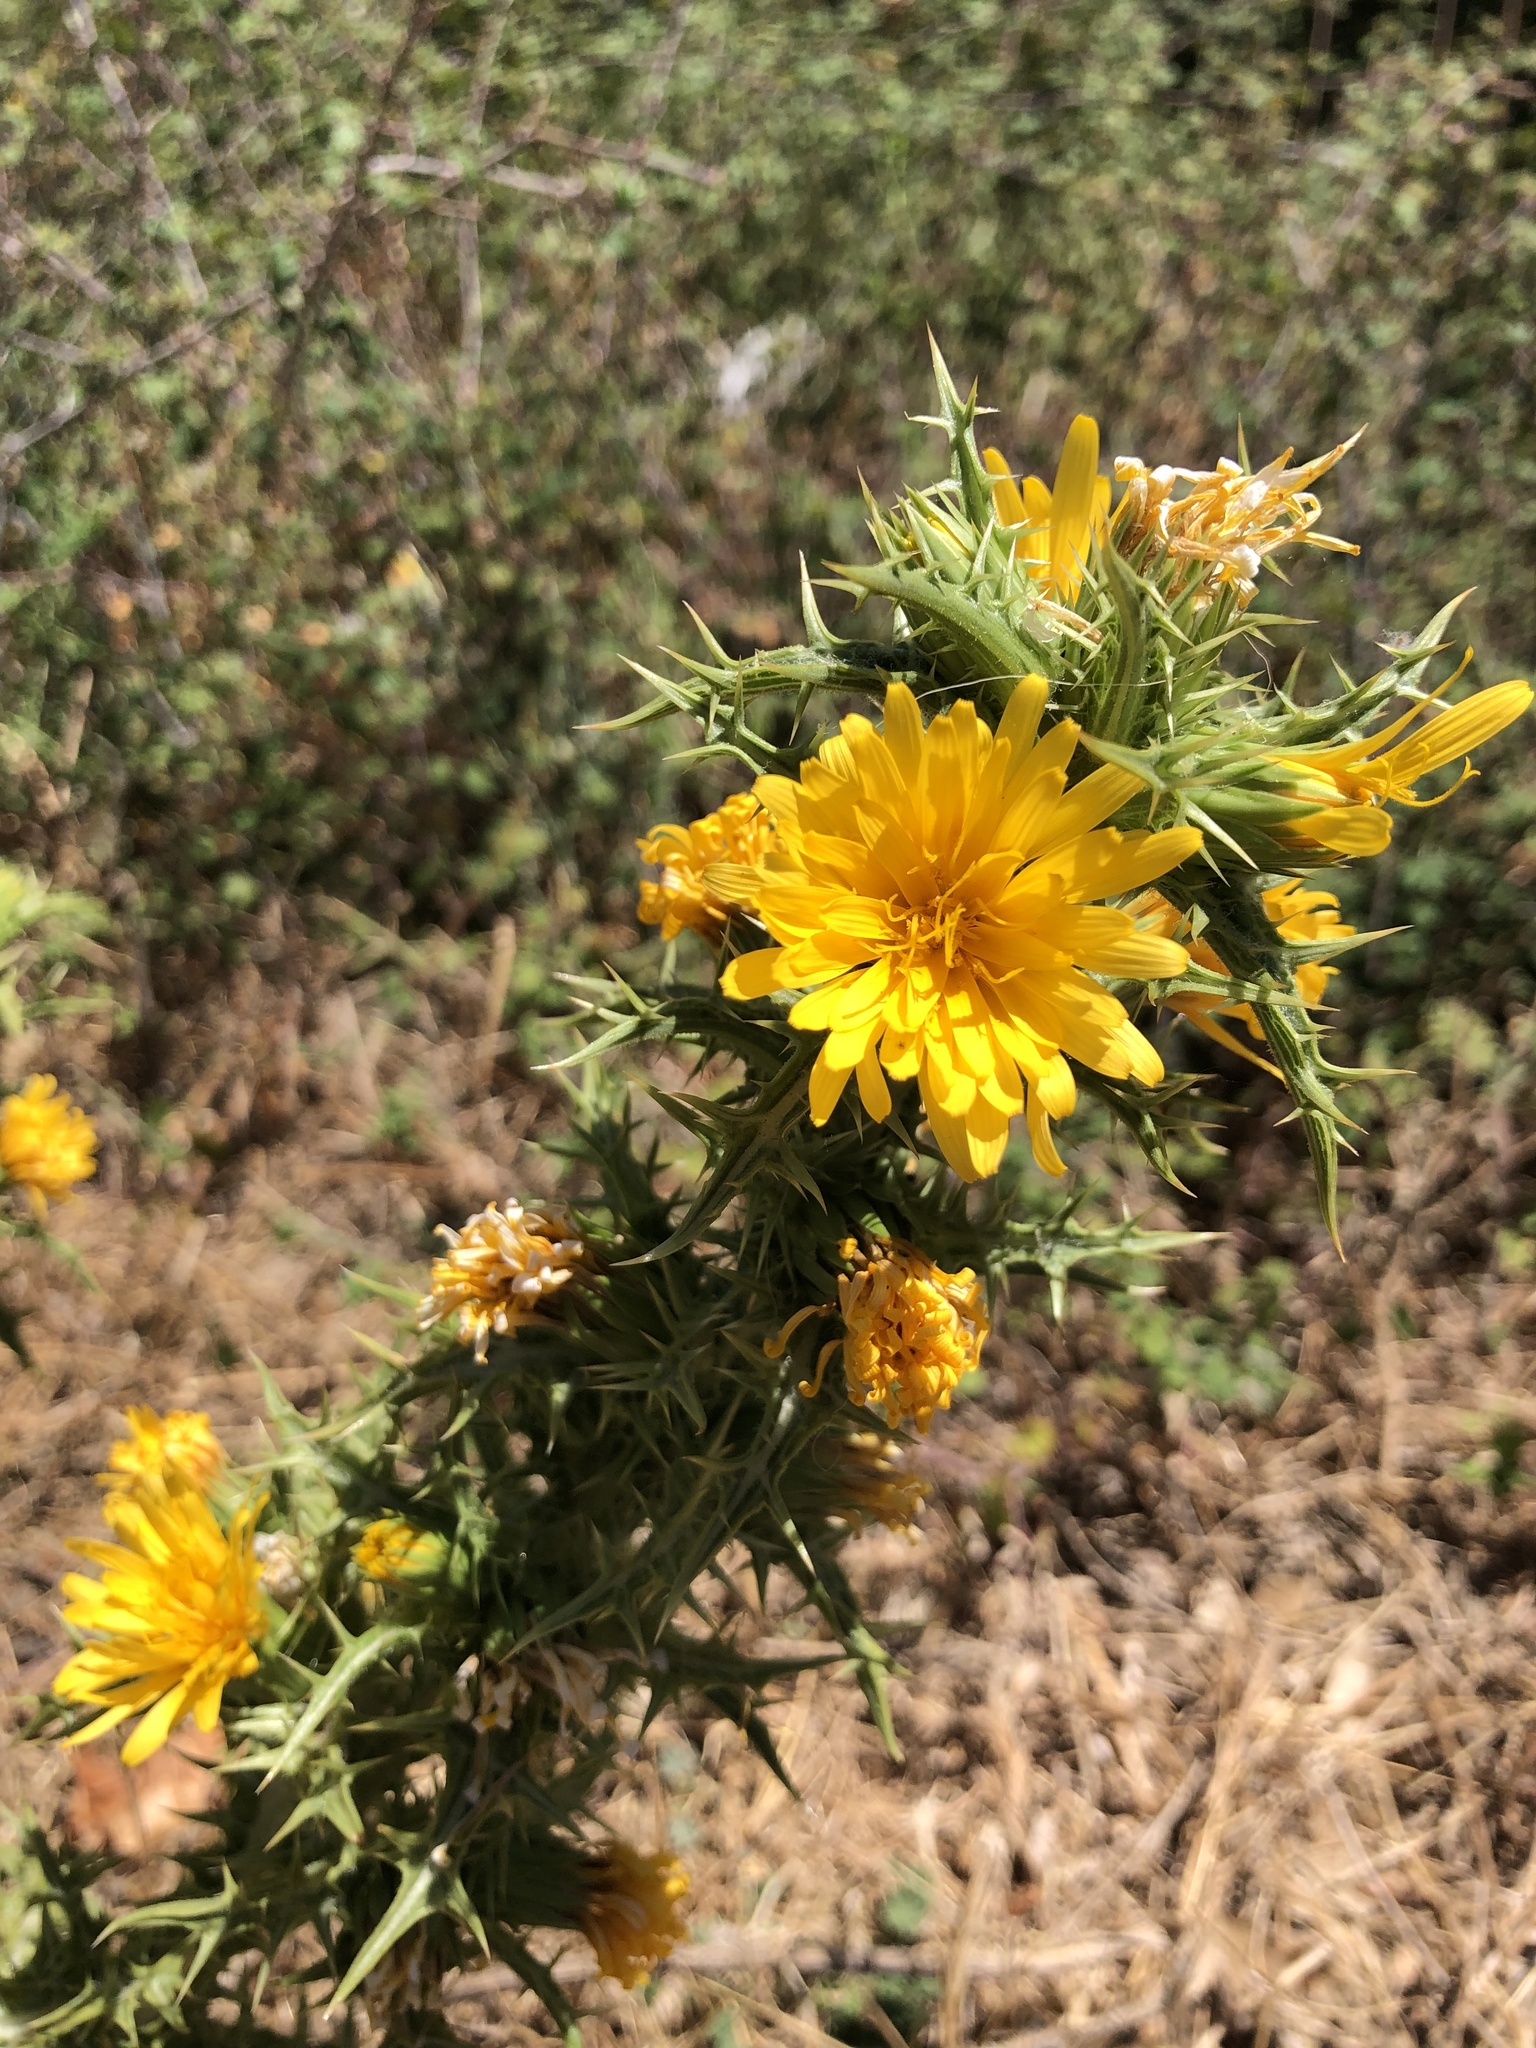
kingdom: Plantae
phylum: Tracheophyta
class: Magnoliopsida
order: Asterales
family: Asteraceae
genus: Scolymus
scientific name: Scolymus hispanicus
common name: Golden thistle
